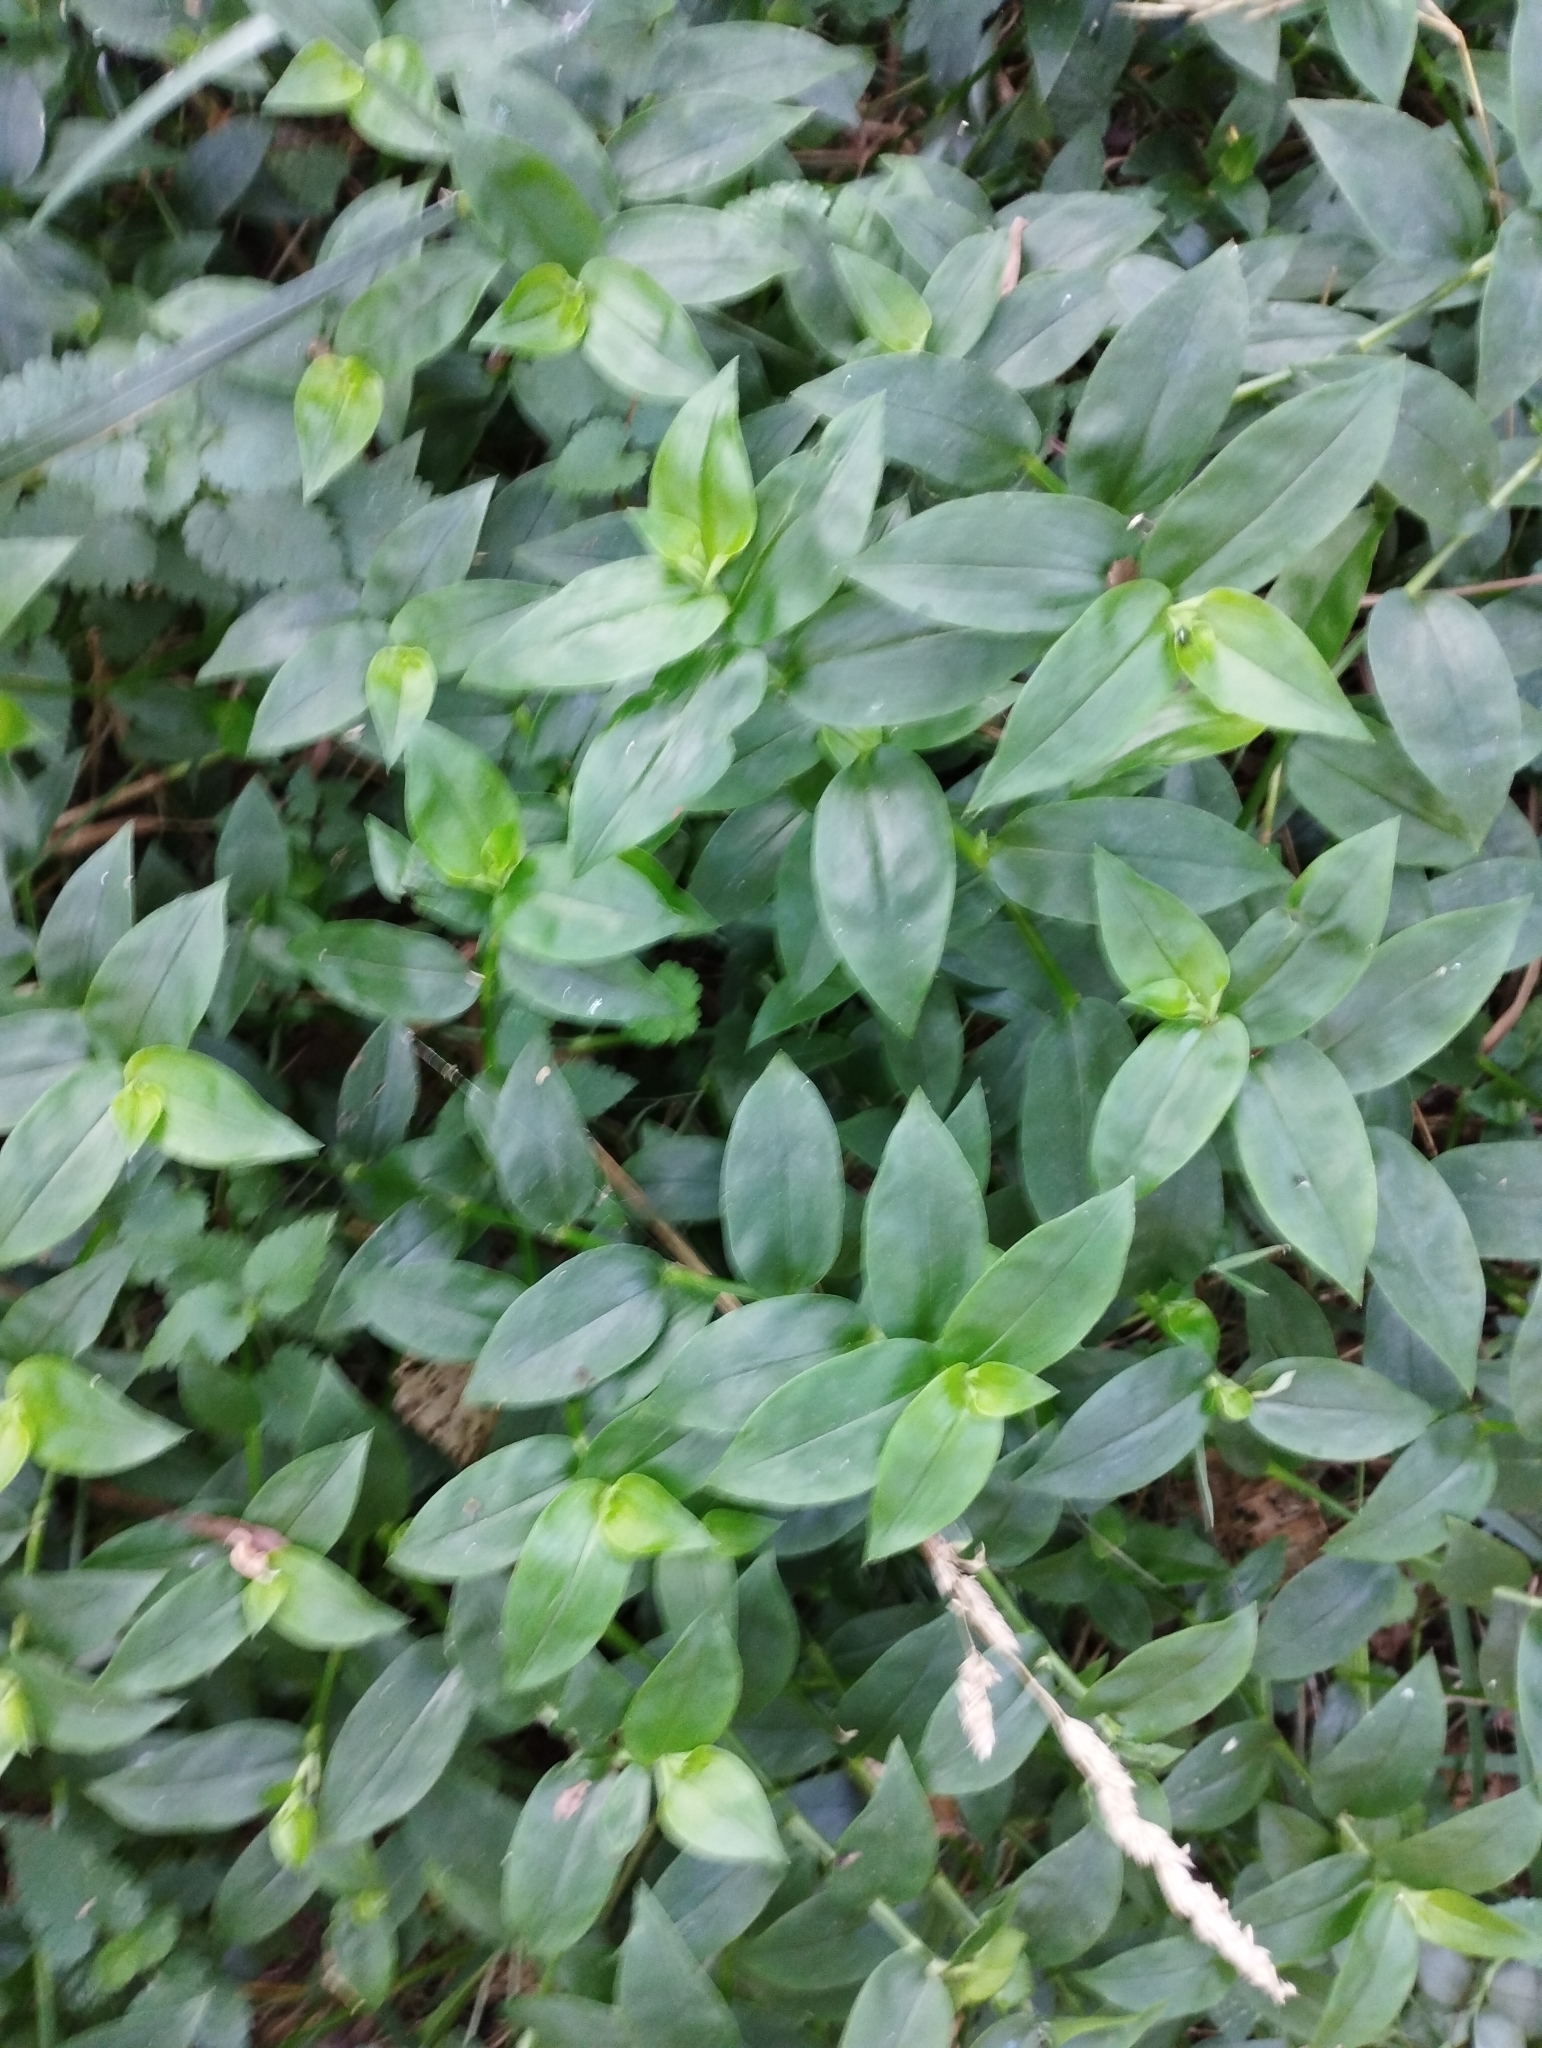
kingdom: Plantae
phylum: Tracheophyta
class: Liliopsida
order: Commelinales
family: Commelinaceae
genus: Tradescantia
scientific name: Tradescantia fluminensis
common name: Wandering-jew
